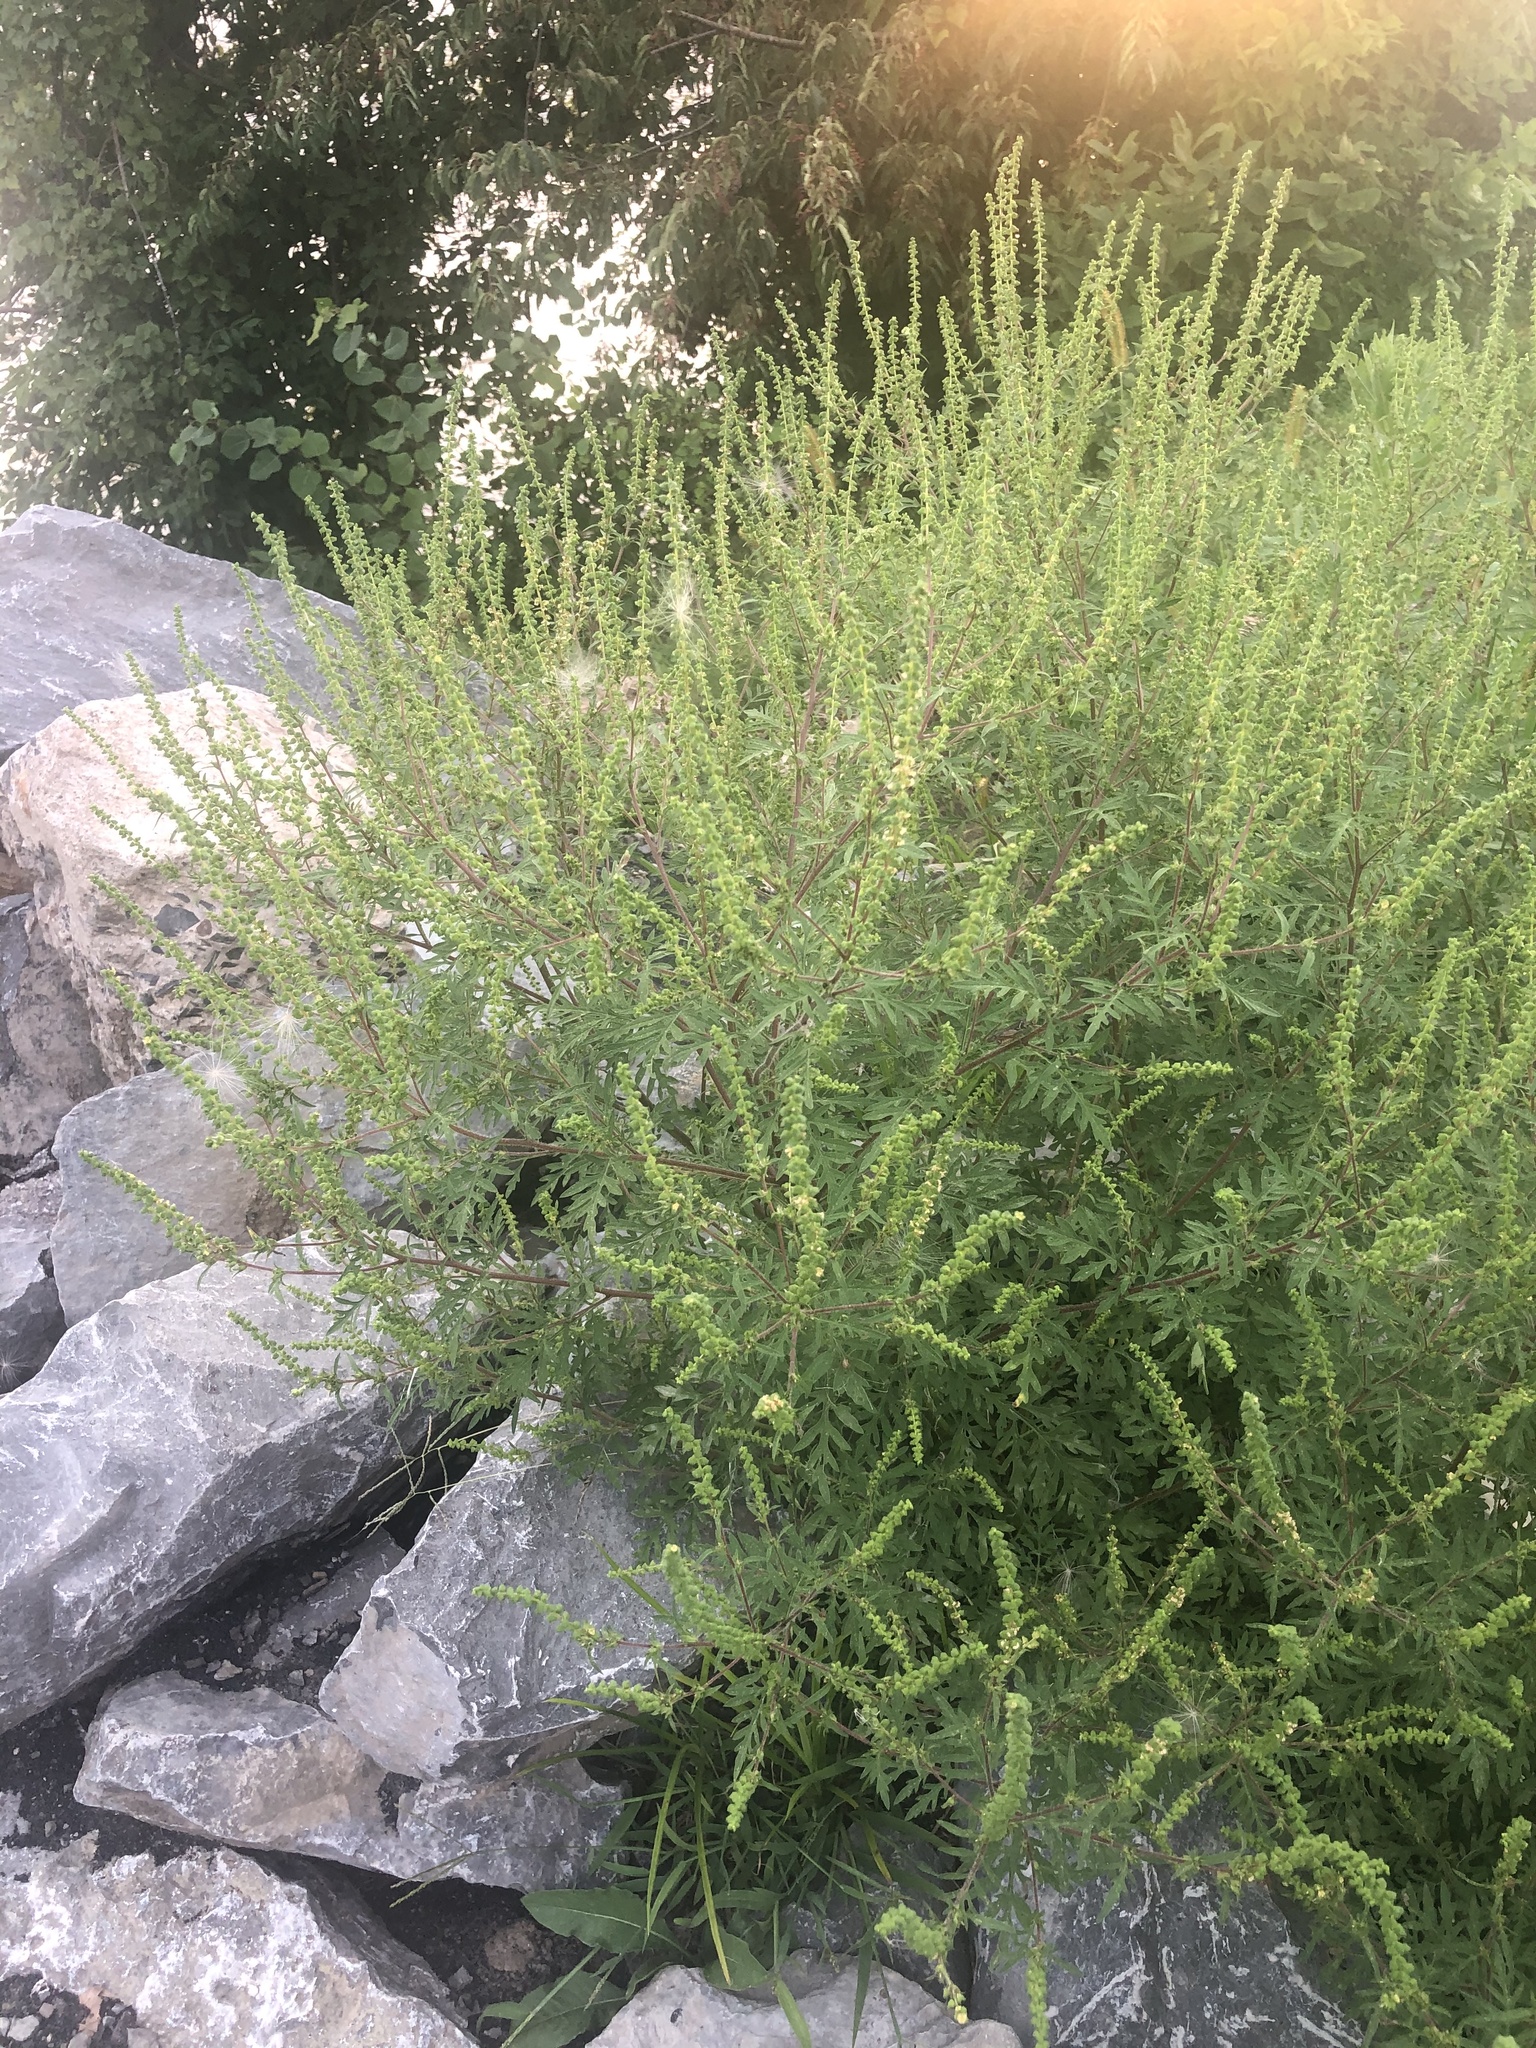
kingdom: Plantae
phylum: Tracheophyta
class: Magnoliopsida
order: Asterales
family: Asteraceae
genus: Ambrosia
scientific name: Ambrosia artemisiifolia
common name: Annual ragweed
